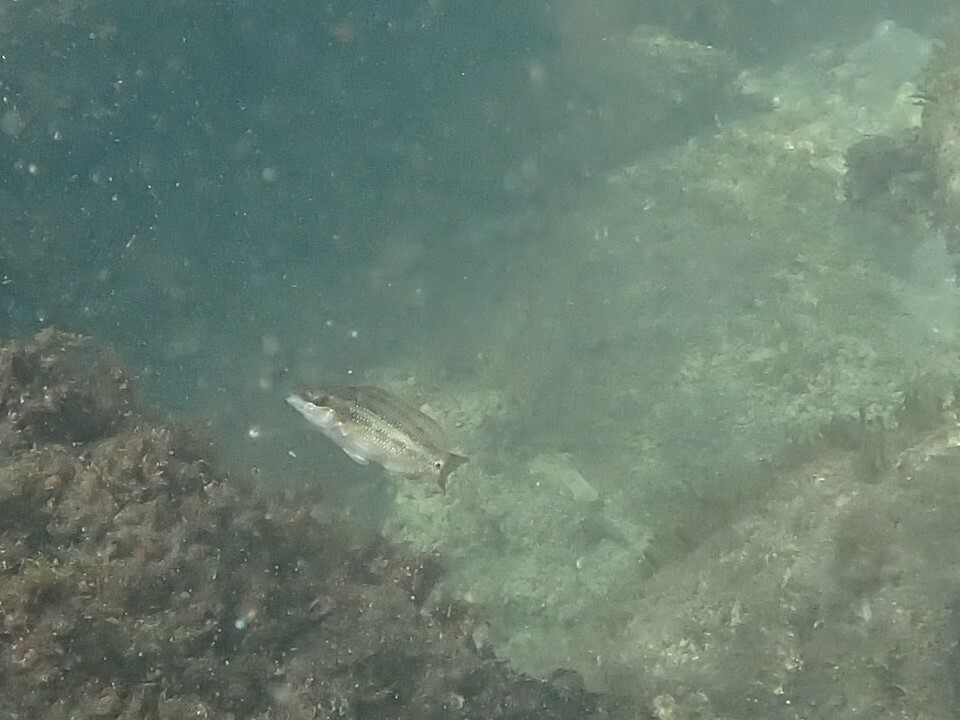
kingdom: Animalia
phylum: Chordata
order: Perciformes
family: Labridae
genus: Symphodus
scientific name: Symphodus tinca
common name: Peacock wrasse
